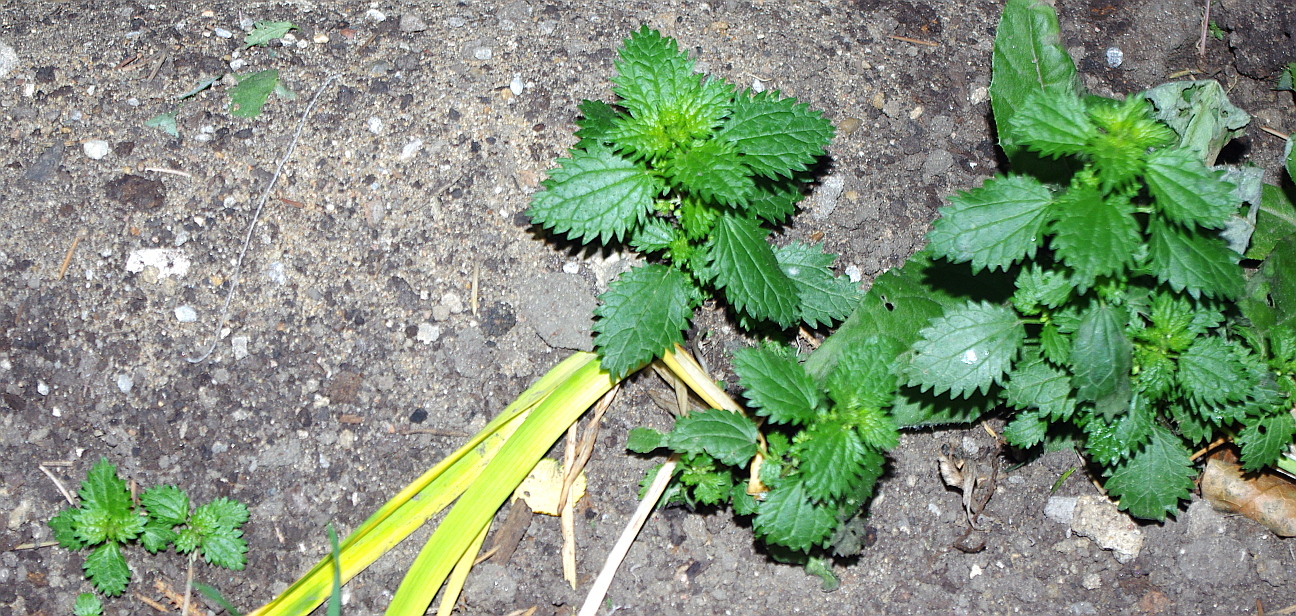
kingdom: Plantae
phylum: Tracheophyta
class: Magnoliopsida
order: Rosales
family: Urticaceae
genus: Urtica
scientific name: Urtica urens
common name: Dwarf nettle
